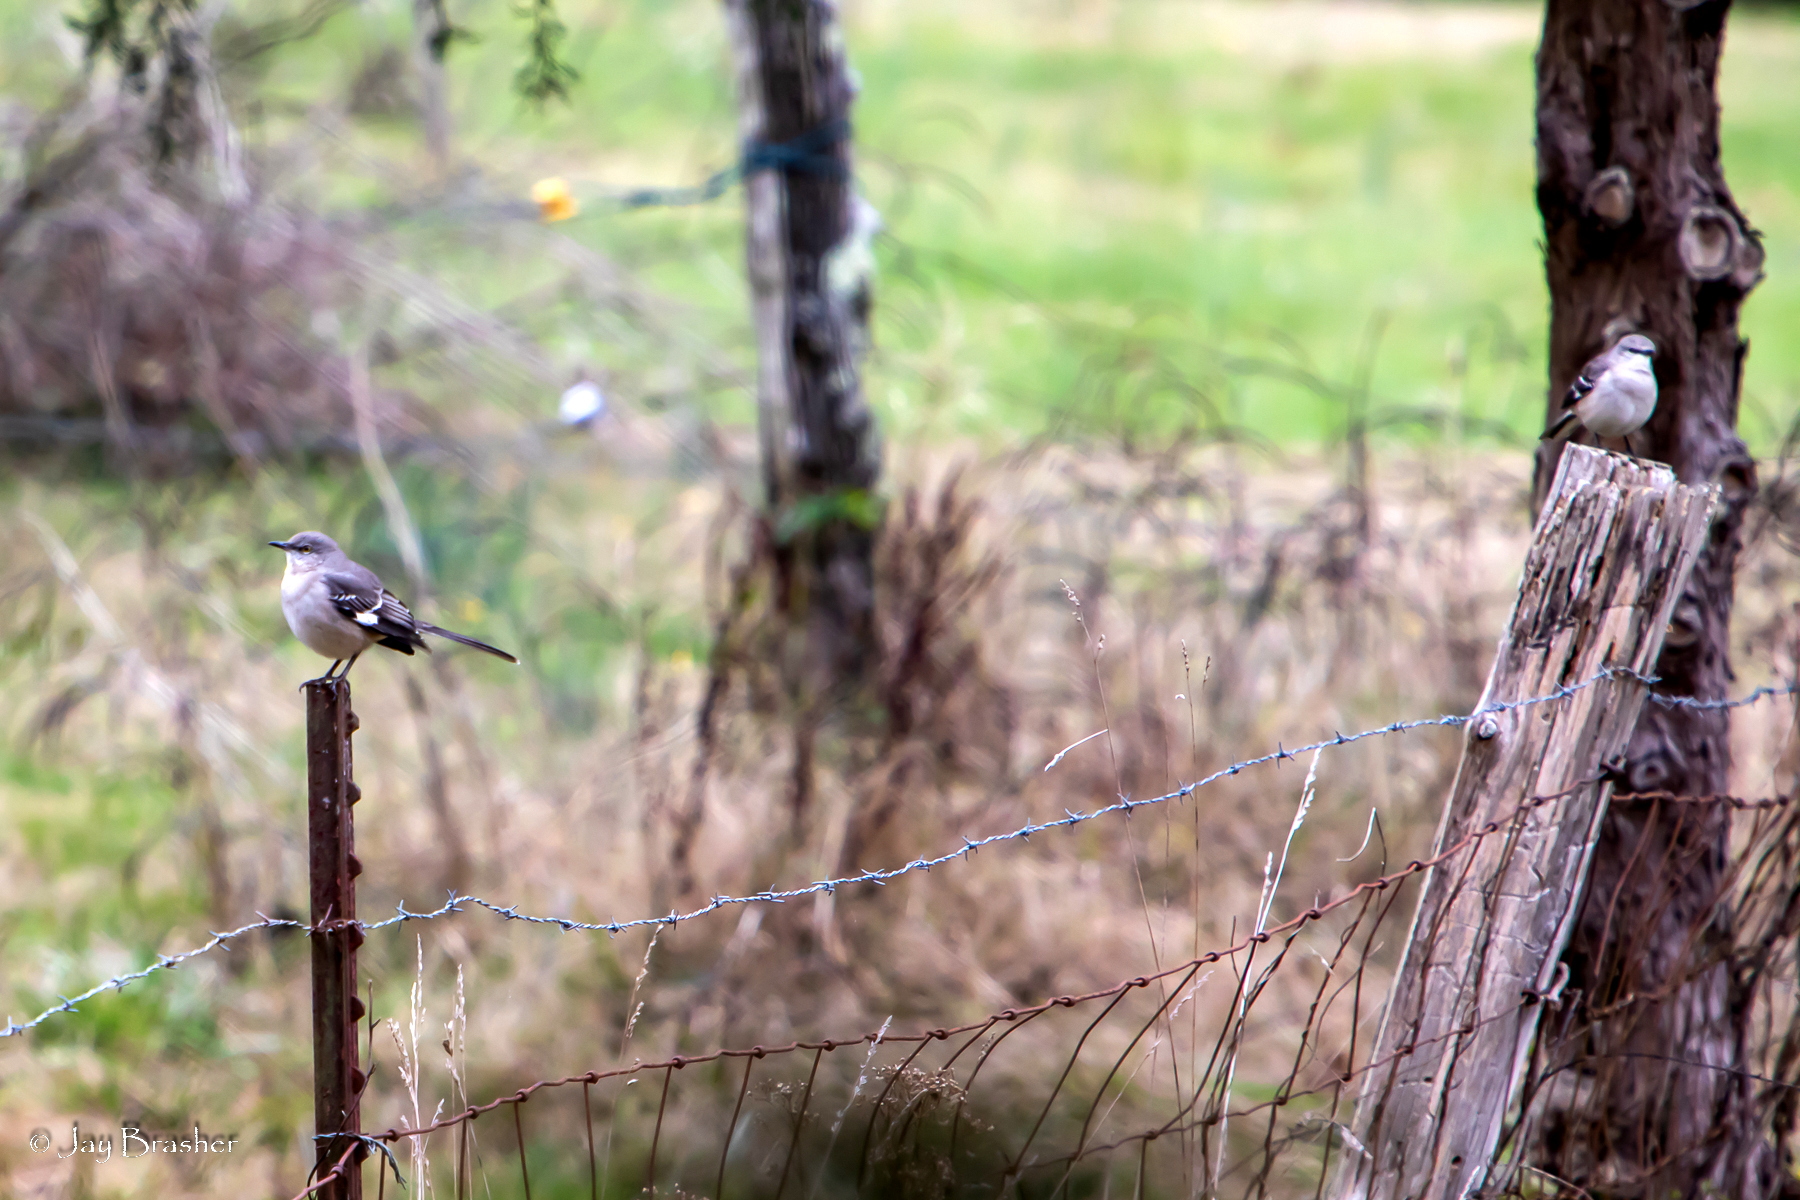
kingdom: Animalia
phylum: Chordata
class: Aves
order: Passeriformes
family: Mimidae
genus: Mimus
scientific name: Mimus polyglottos
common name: Northern mockingbird
